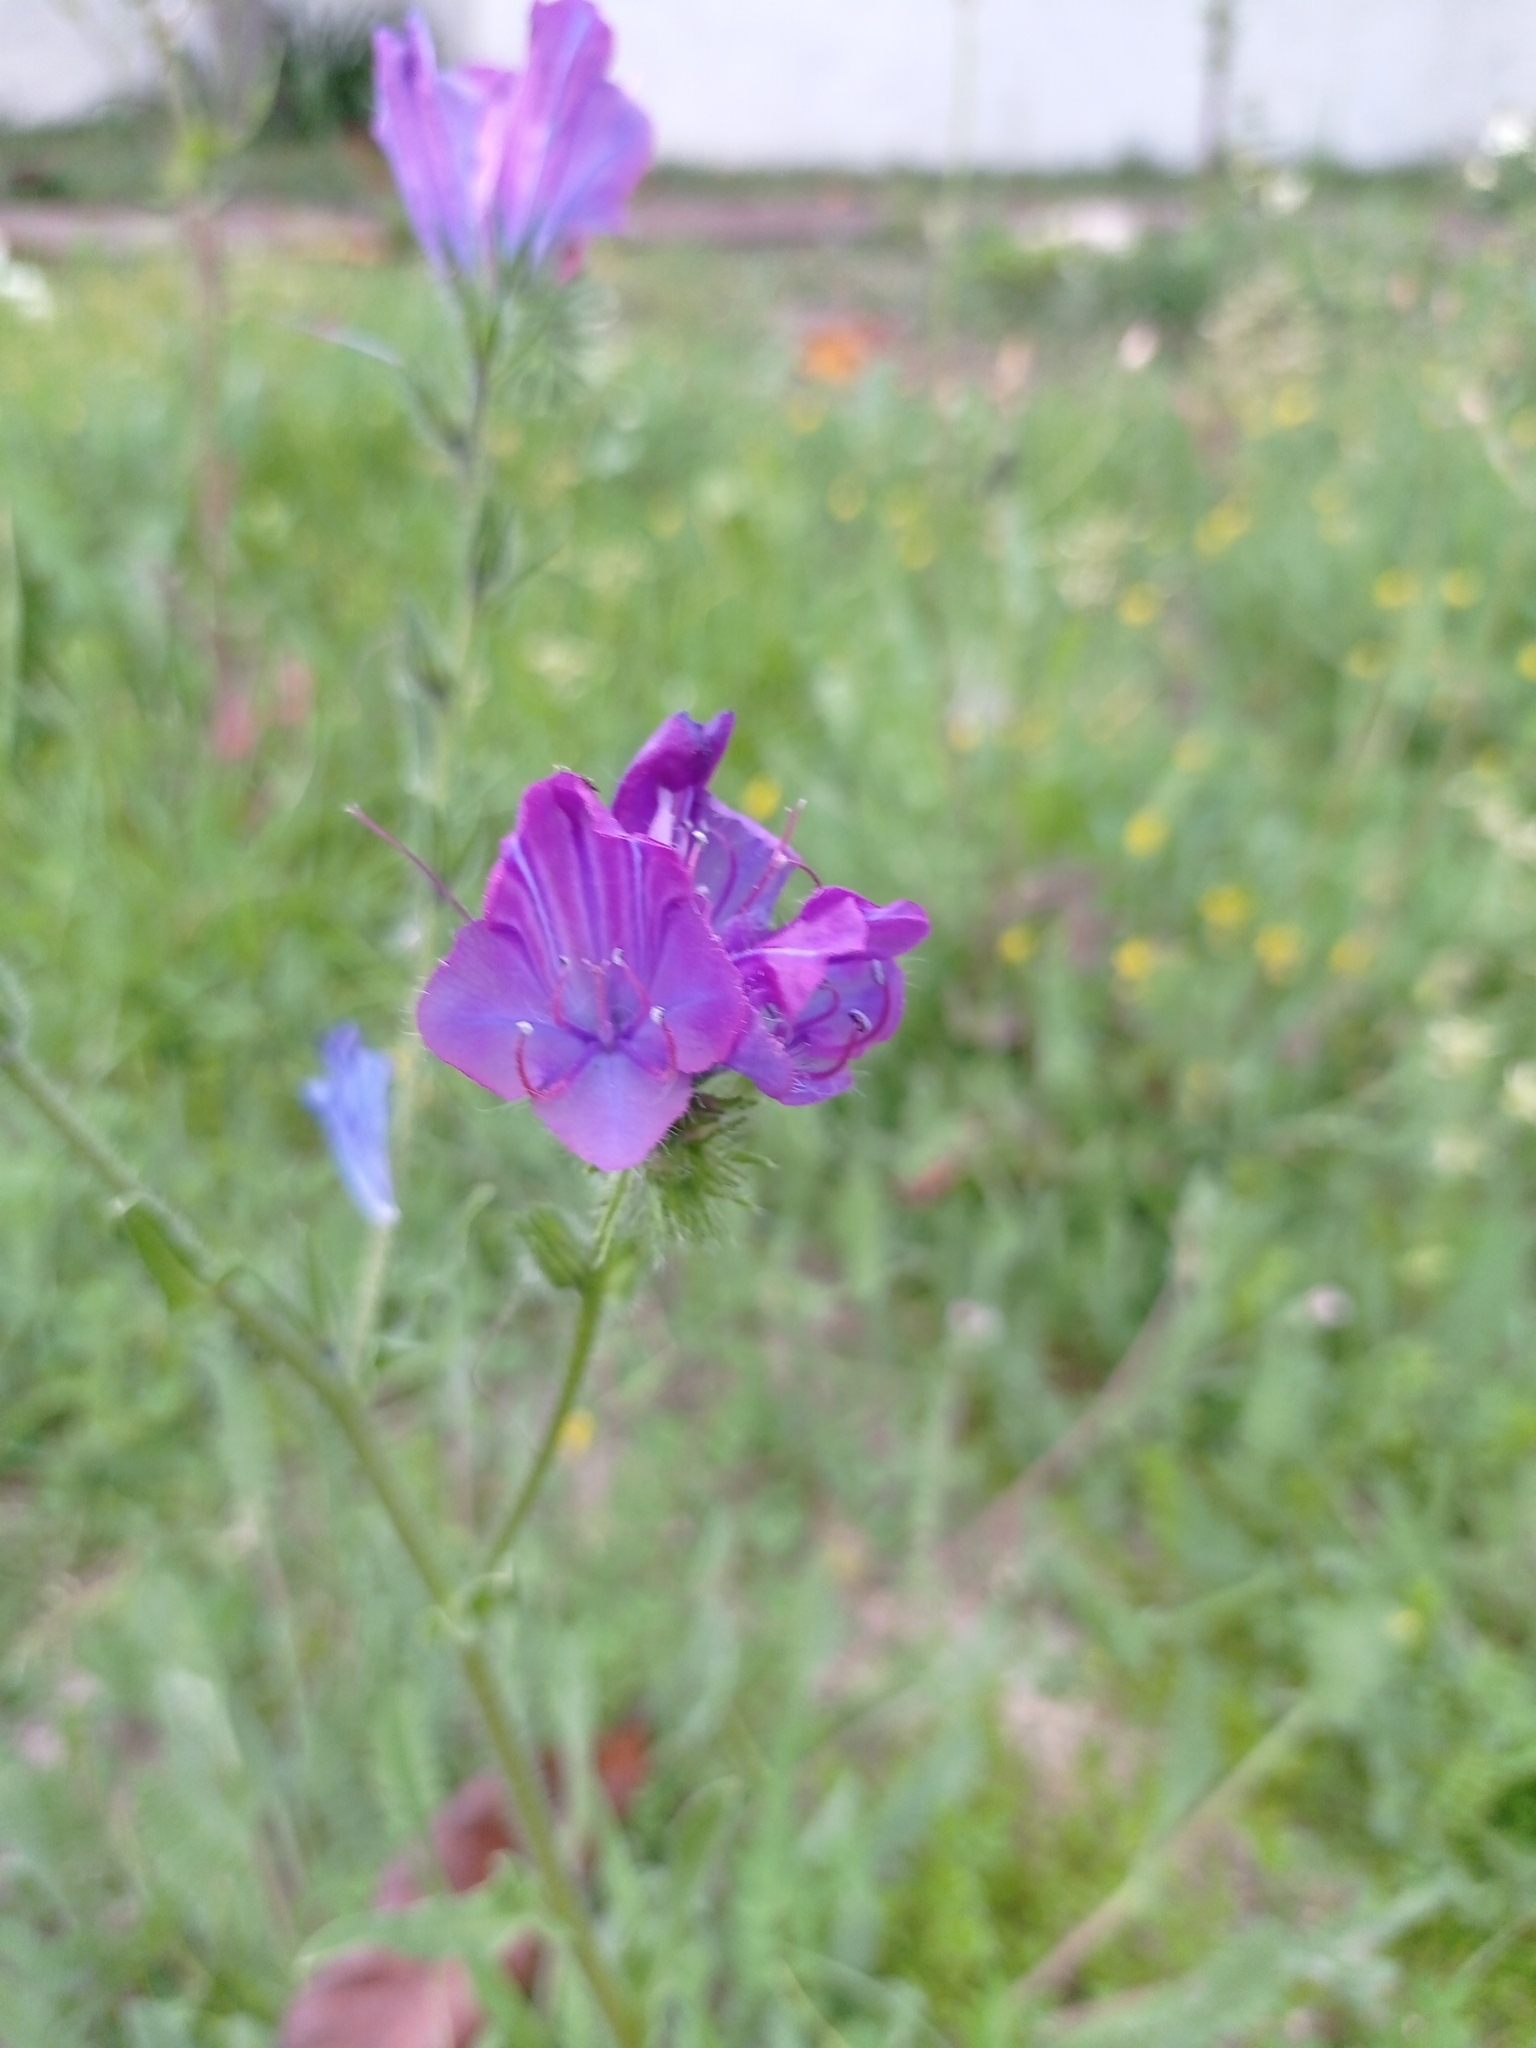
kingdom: Plantae
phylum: Tracheophyta
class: Magnoliopsida
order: Boraginales
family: Boraginaceae
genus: Echium
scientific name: Echium plantagineum
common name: Purple viper's-bugloss
